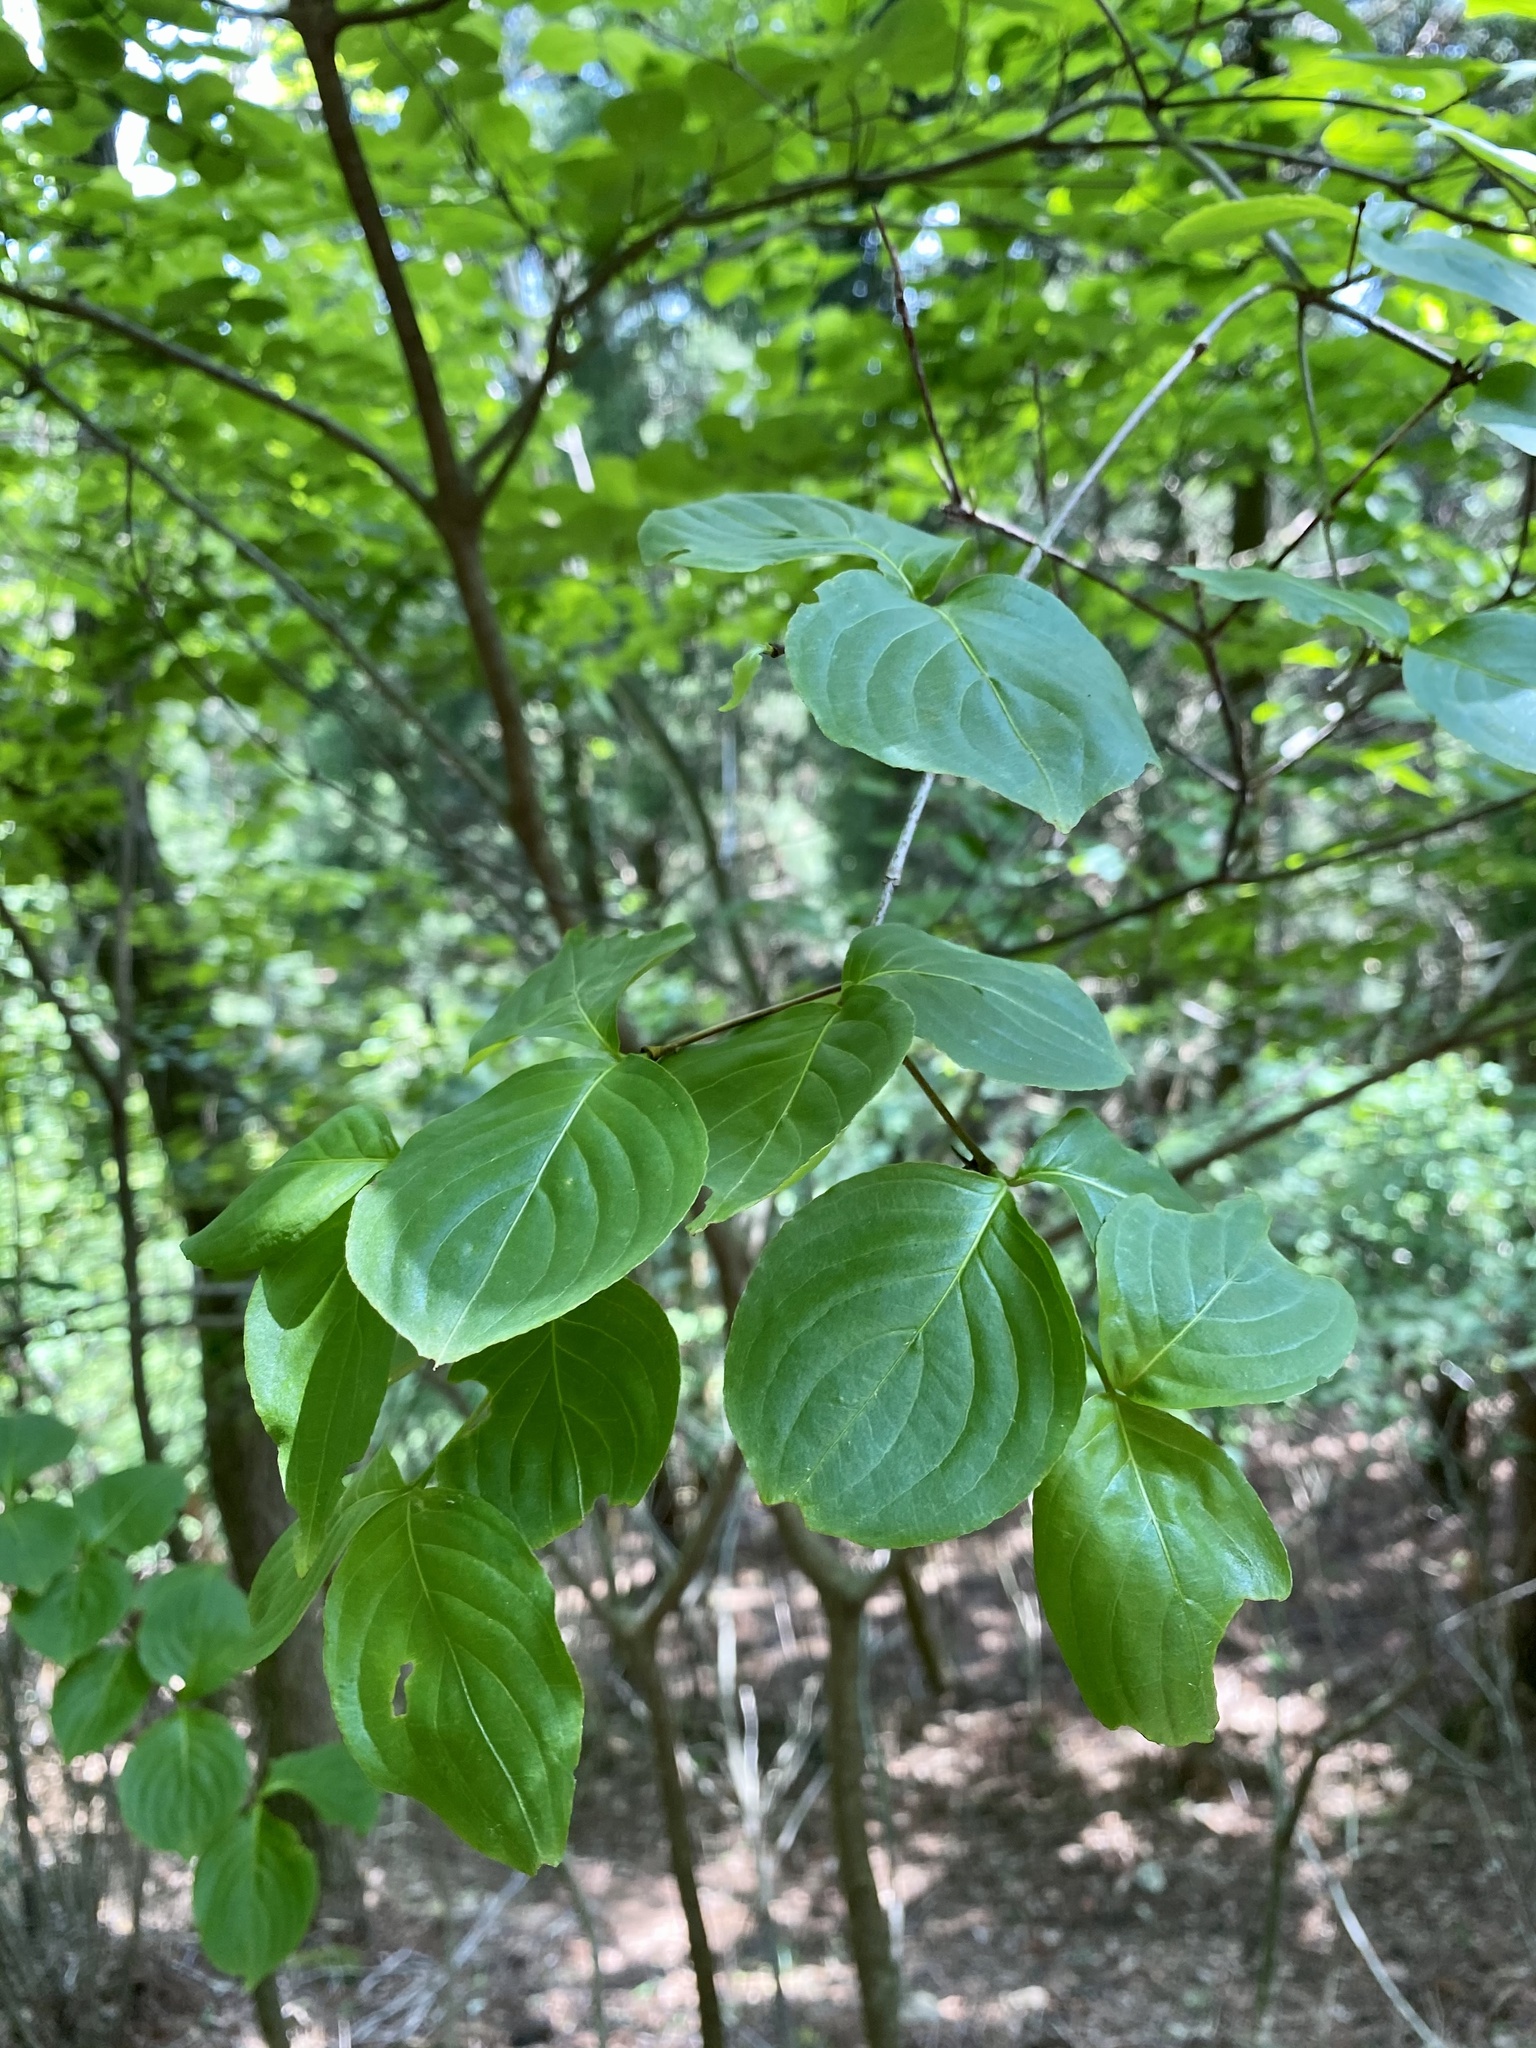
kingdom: Plantae
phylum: Tracheophyta
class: Magnoliopsida
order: Cornales
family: Cornaceae
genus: Cornus
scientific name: Cornus kousa
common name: Japanese dogwood
